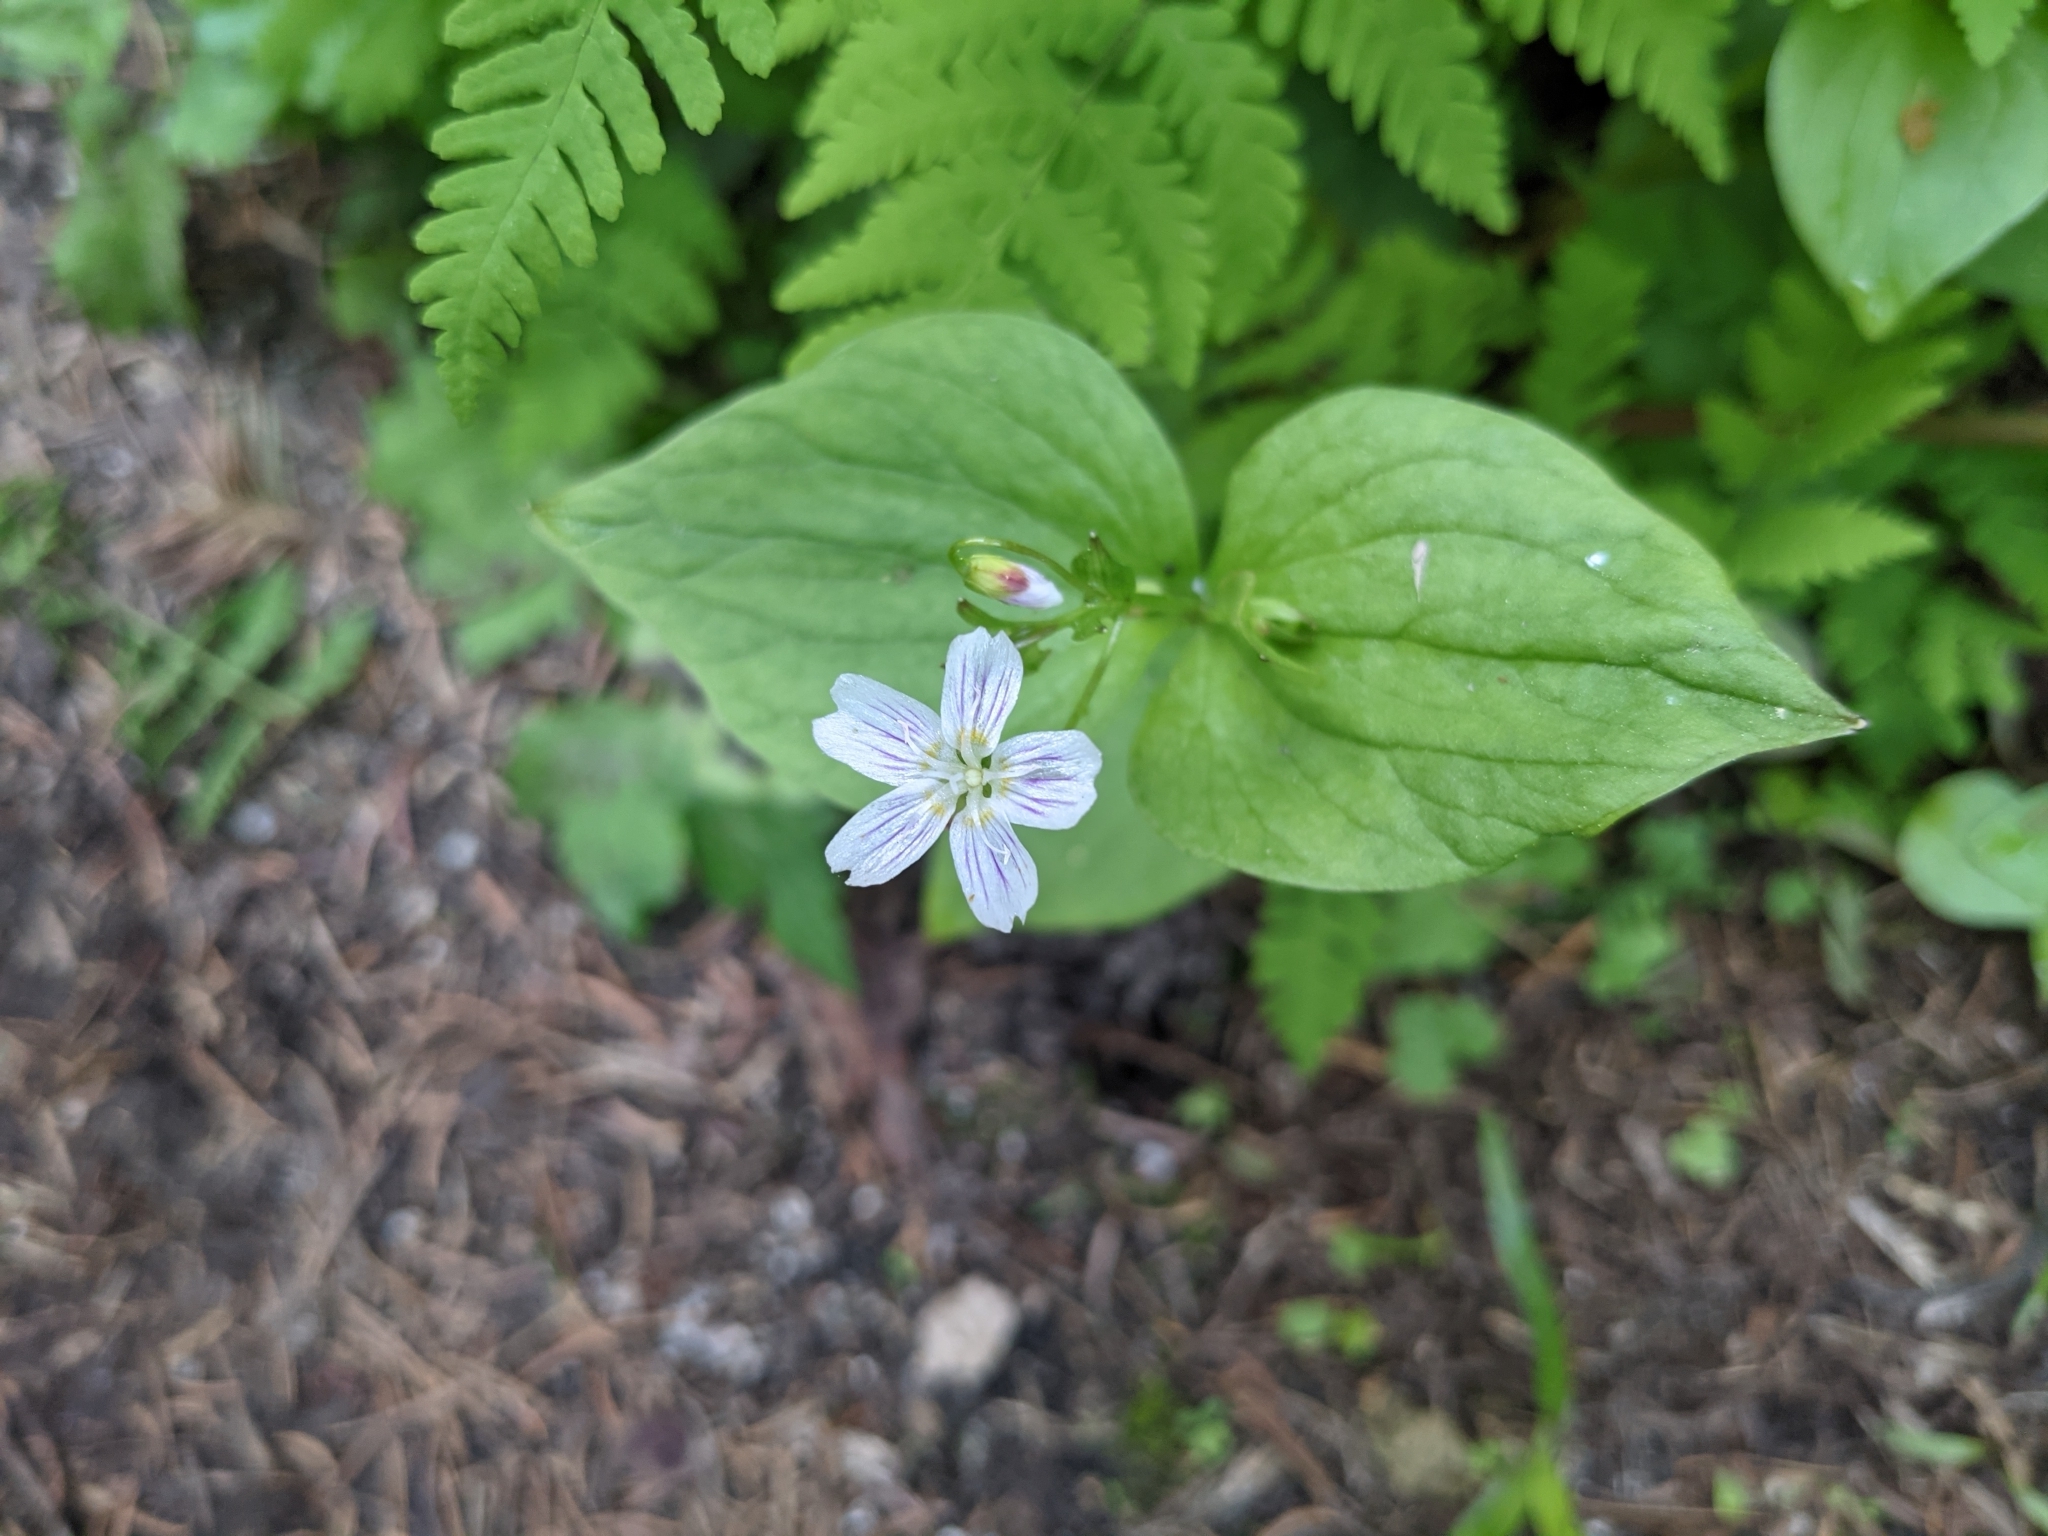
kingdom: Plantae
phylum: Tracheophyta
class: Magnoliopsida
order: Caryophyllales
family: Montiaceae
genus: Claytonia
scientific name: Claytonia sibirica
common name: Pink purslane
